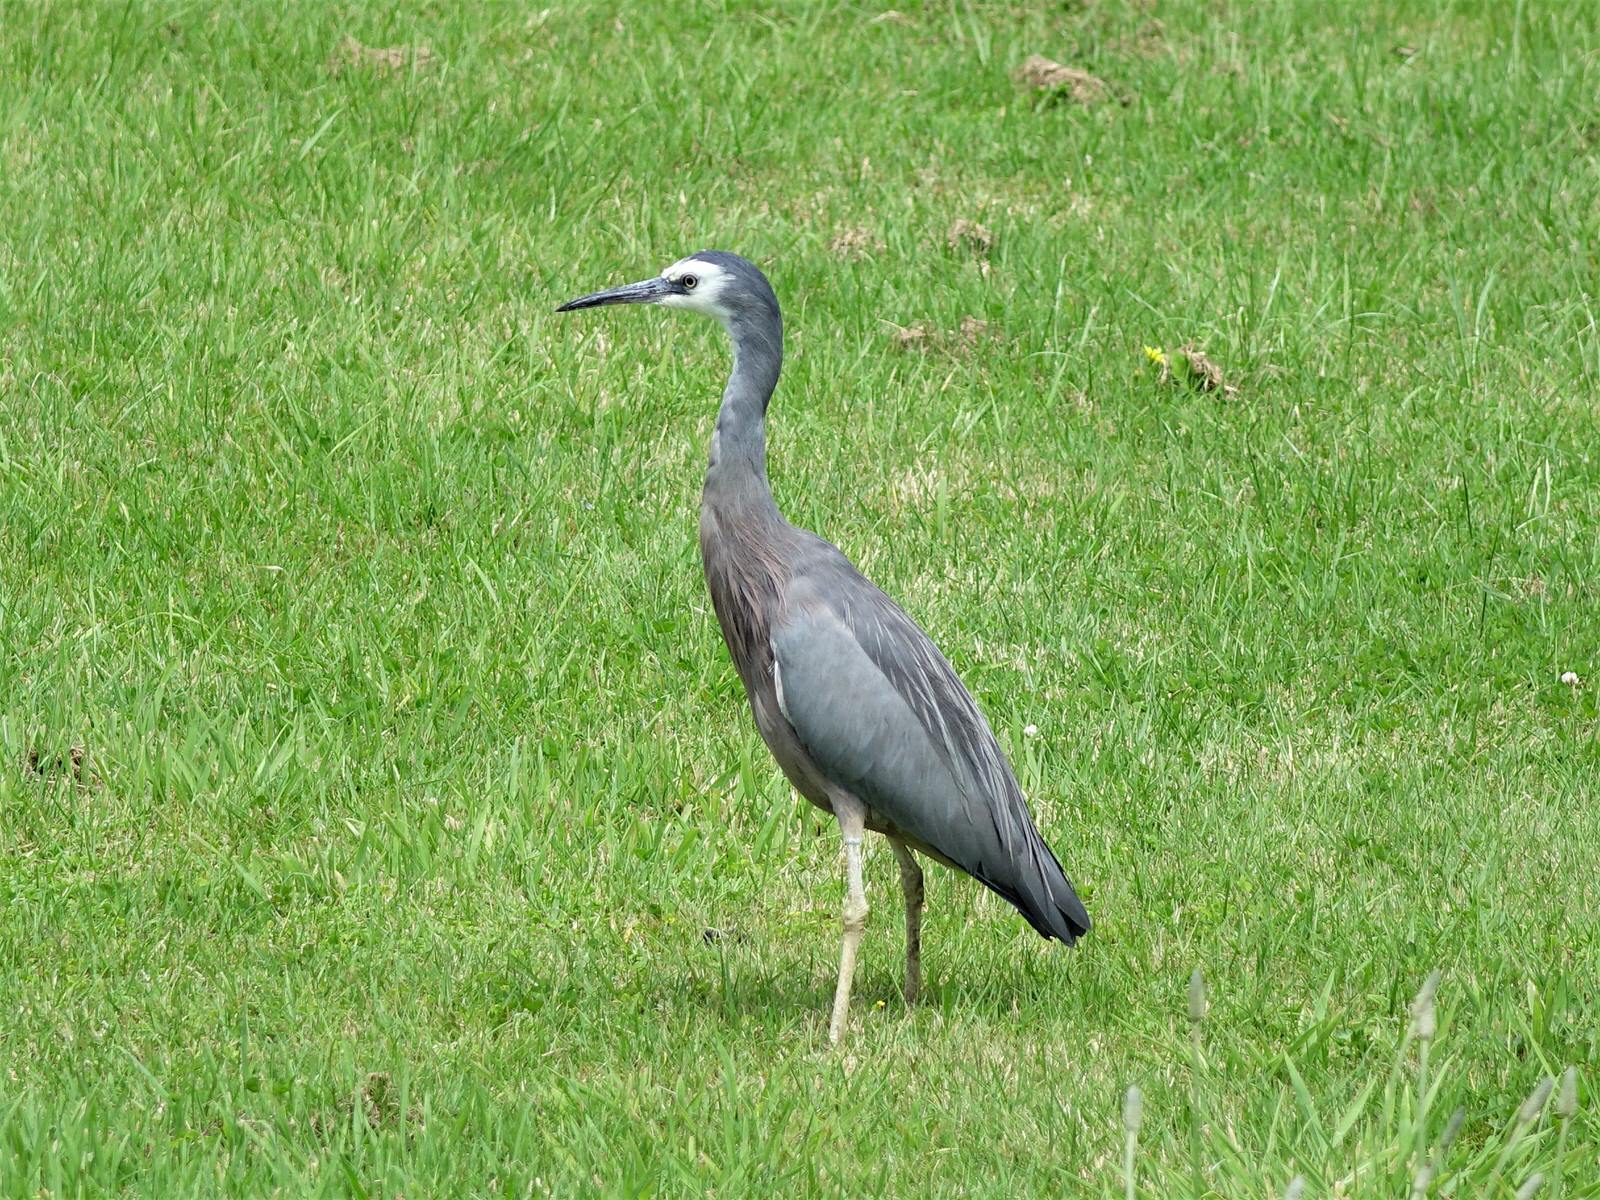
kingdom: Animalia
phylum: Chordata
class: Aves
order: Pelecaniformes
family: Ardeidae
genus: Egretta
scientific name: Egretta novaehollandiae
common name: White-faced heron
